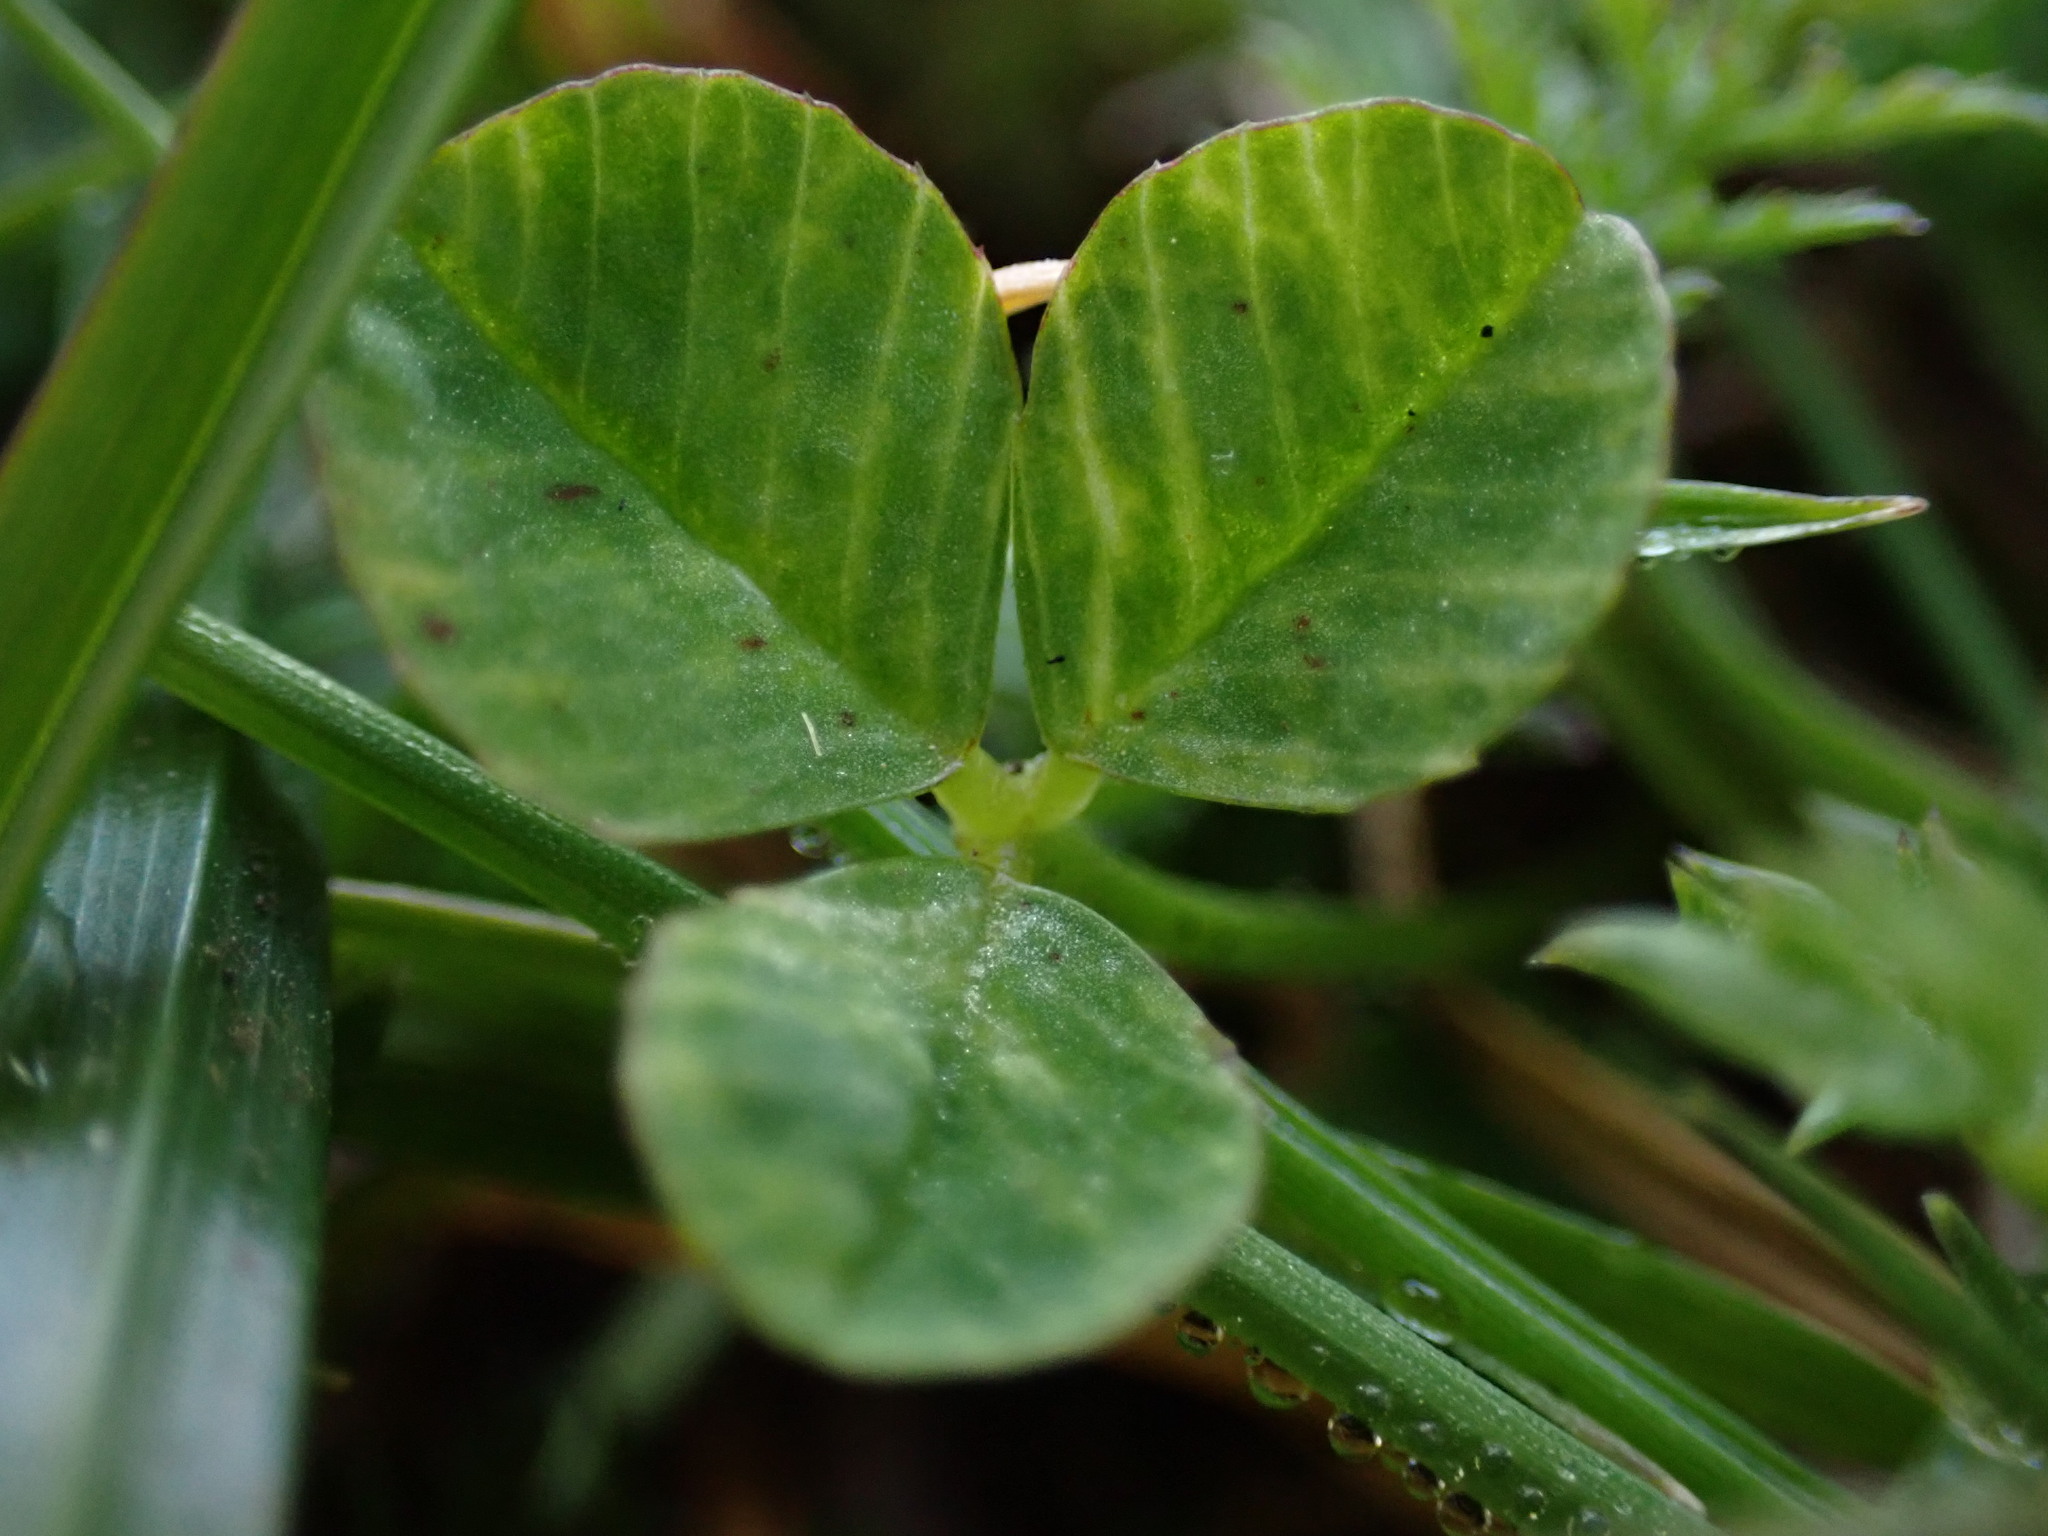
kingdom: Plantae
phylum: Tracheophyta
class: Magnoliopsida
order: Fabales
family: Fabaceae
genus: Trifolium
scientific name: Trifolium repens
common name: White clover
